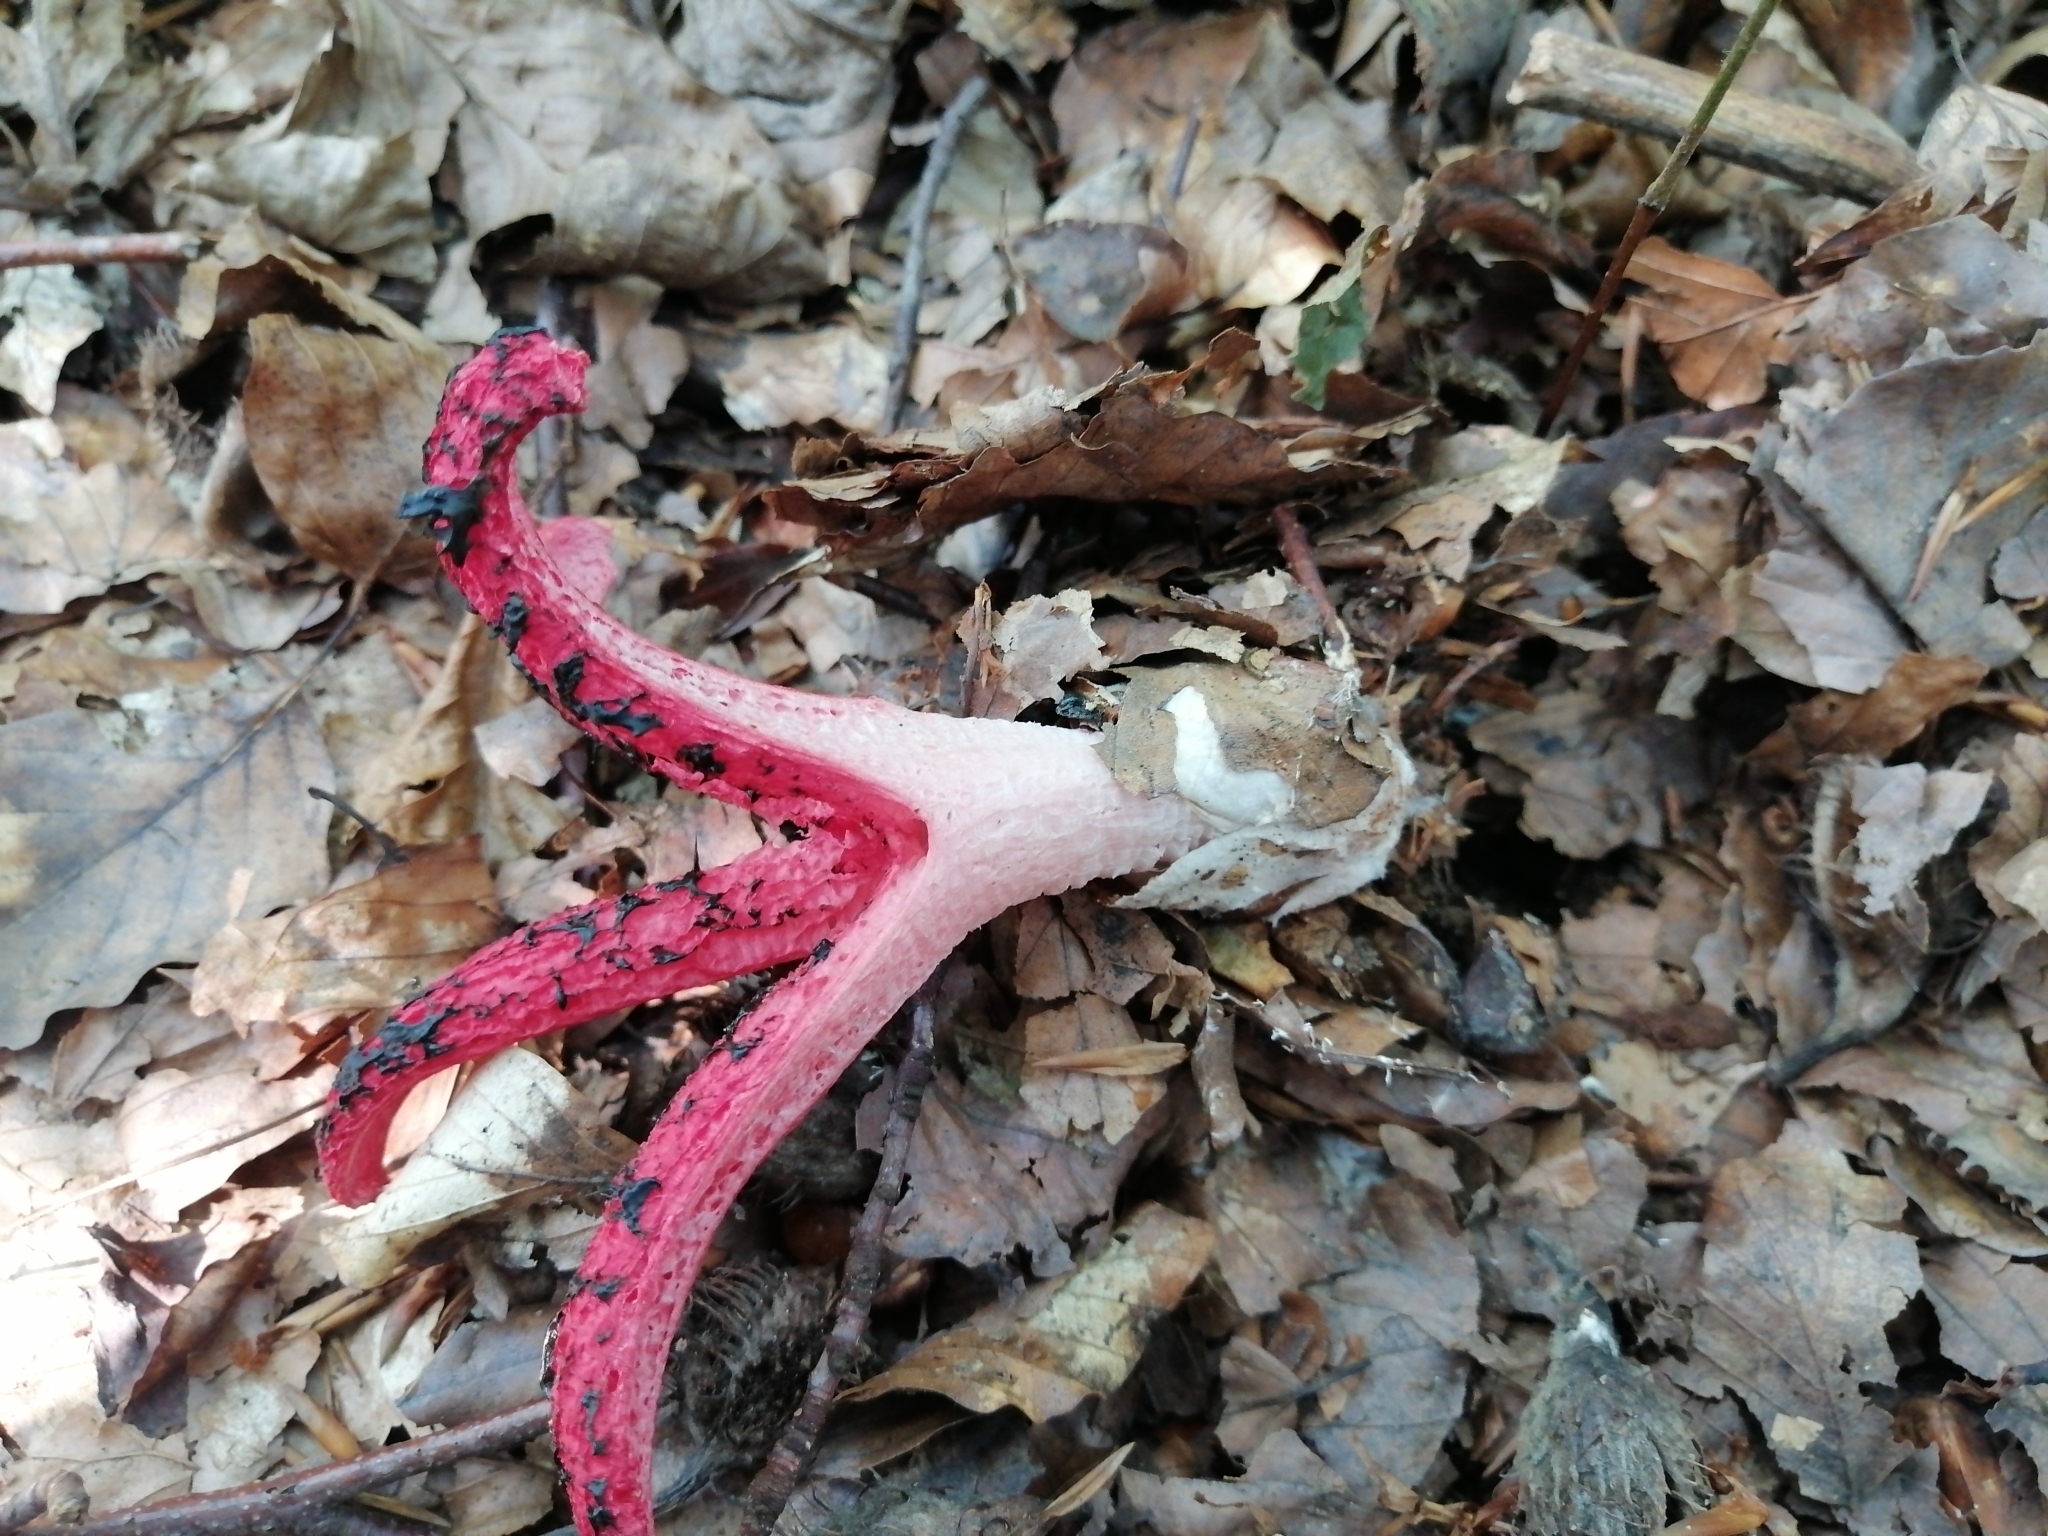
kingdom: Fungi
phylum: Basidiomycota
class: Agaricomycetes
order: Phallales
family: Phallaceae
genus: Clathrus
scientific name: Clathrus archeri
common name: Devil's fingers
